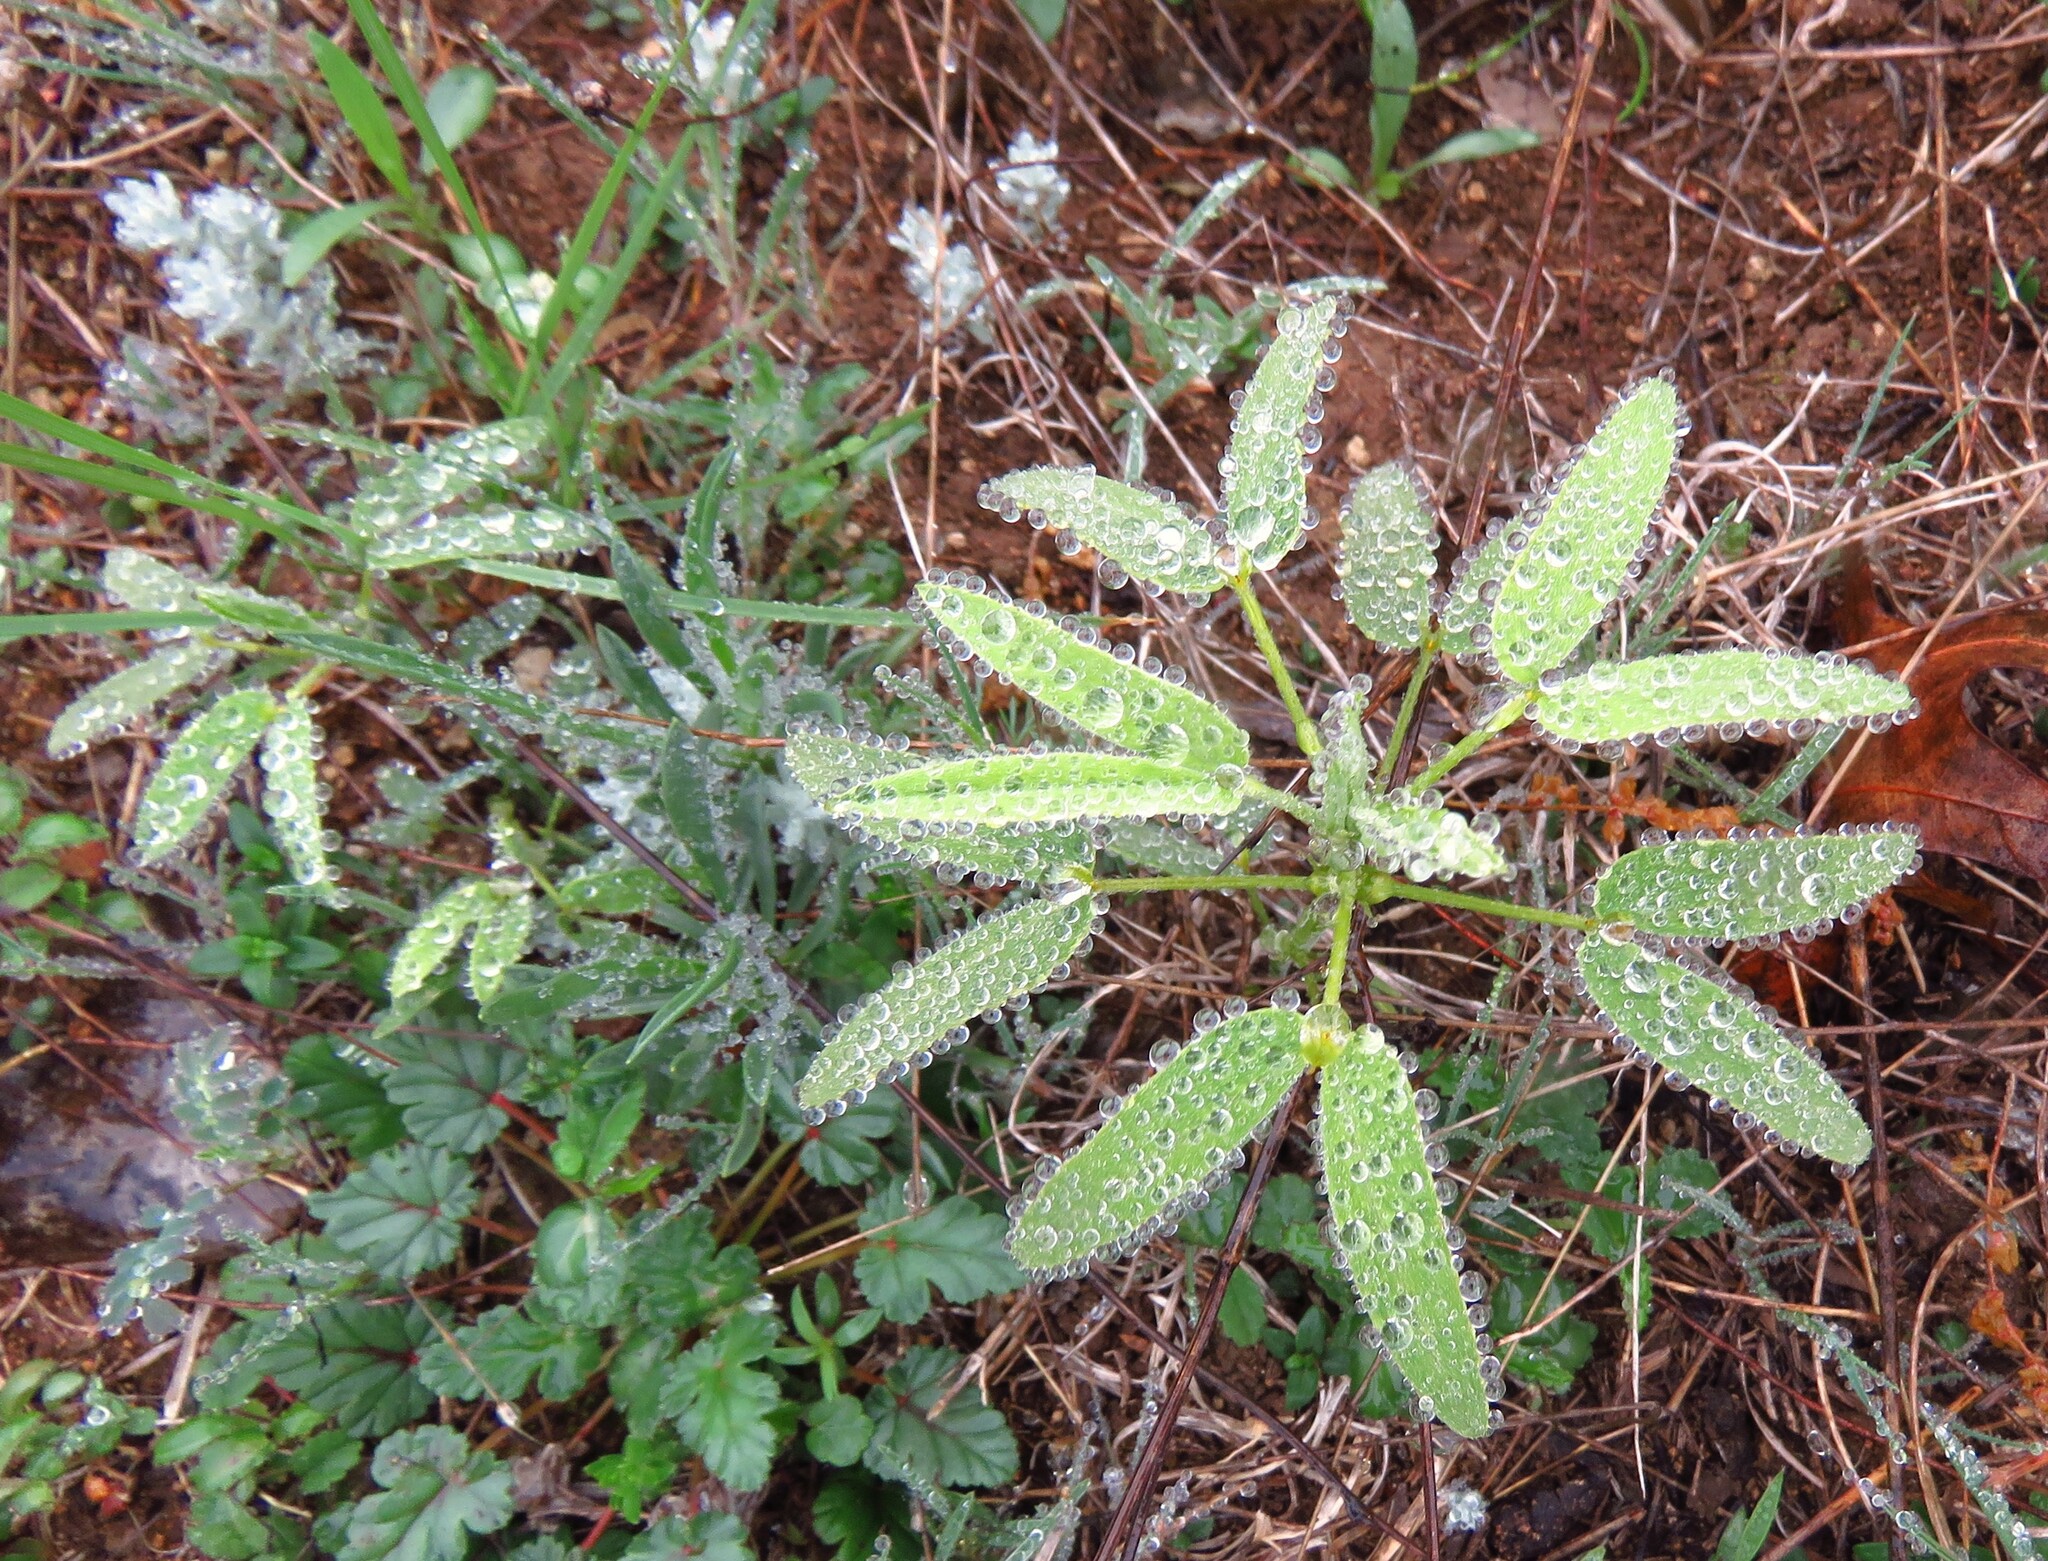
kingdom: Plantae
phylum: Tracheophyta
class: Magnoliopsida
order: Fabales
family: Fabaceae
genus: Senna
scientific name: Senna roemeriana
